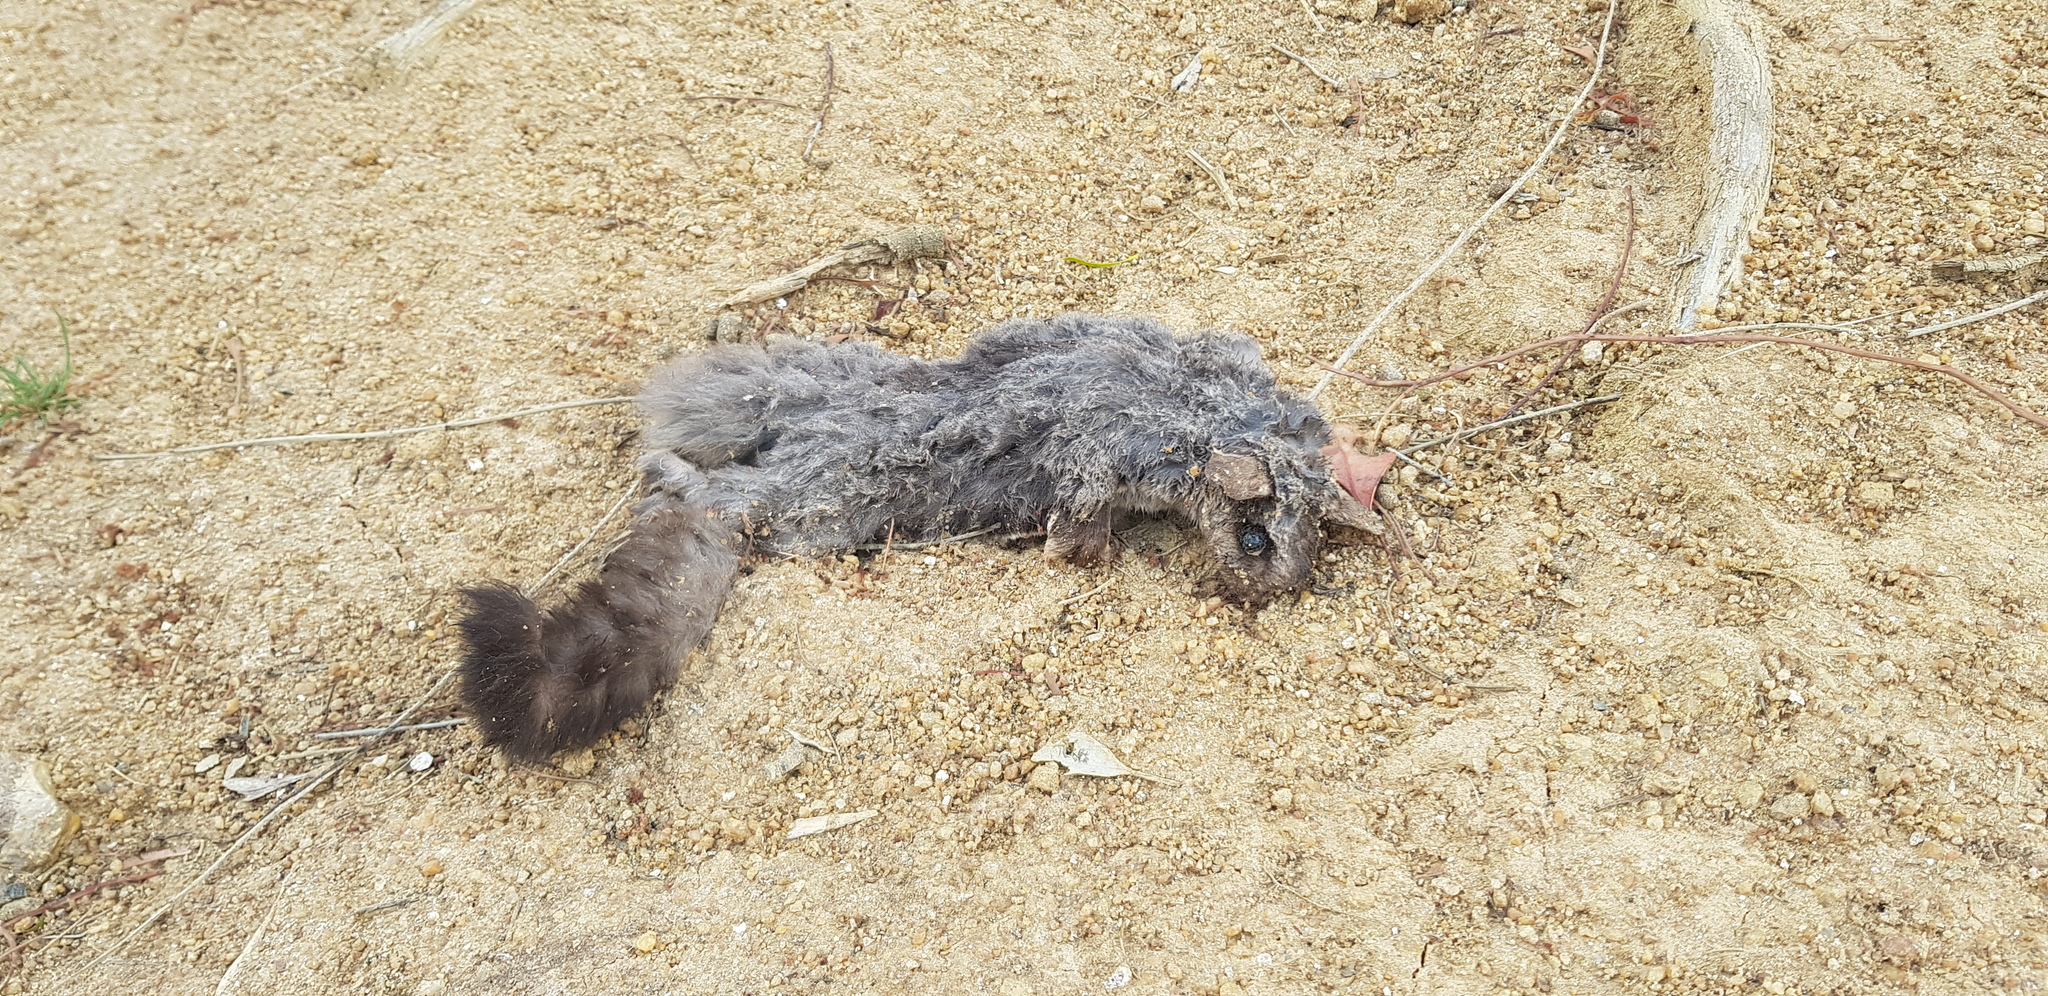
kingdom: Animalia
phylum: Chordata
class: Mammalia
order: Diprotodontia
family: Petauridae
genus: Petaurus
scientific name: Petaurus breviceps
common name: Sugar glider
